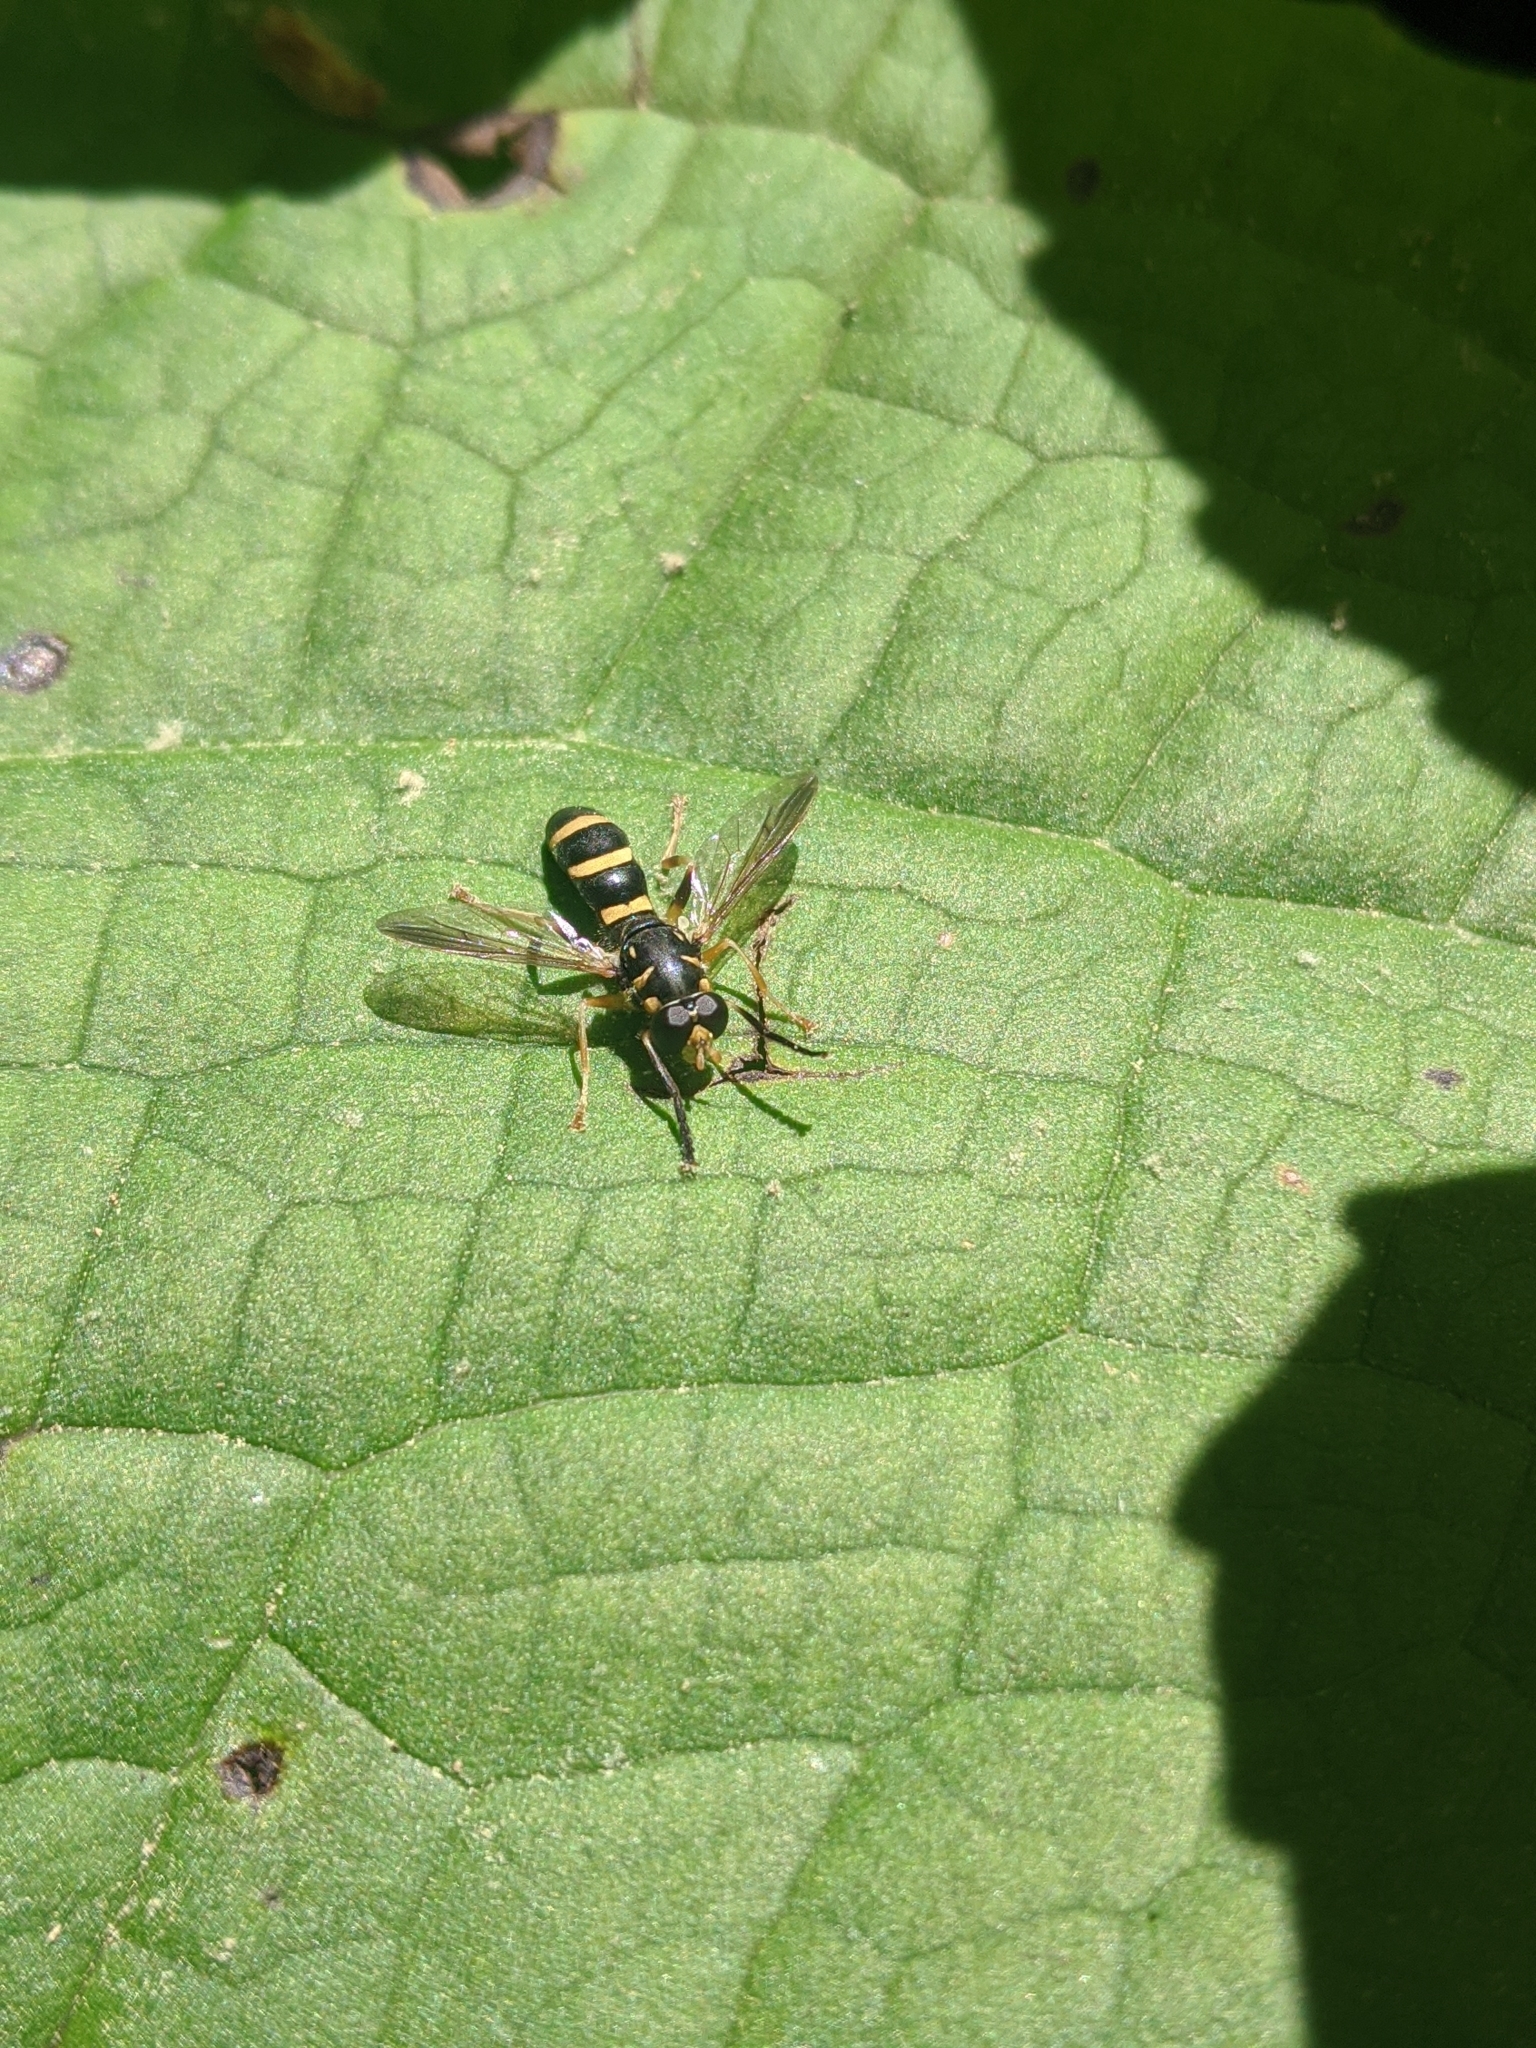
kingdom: Animalia
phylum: Arthropoda
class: Insecta
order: Diptera
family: Syrphidae
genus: Temnostoma
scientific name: Temnostoma trifasciatum
